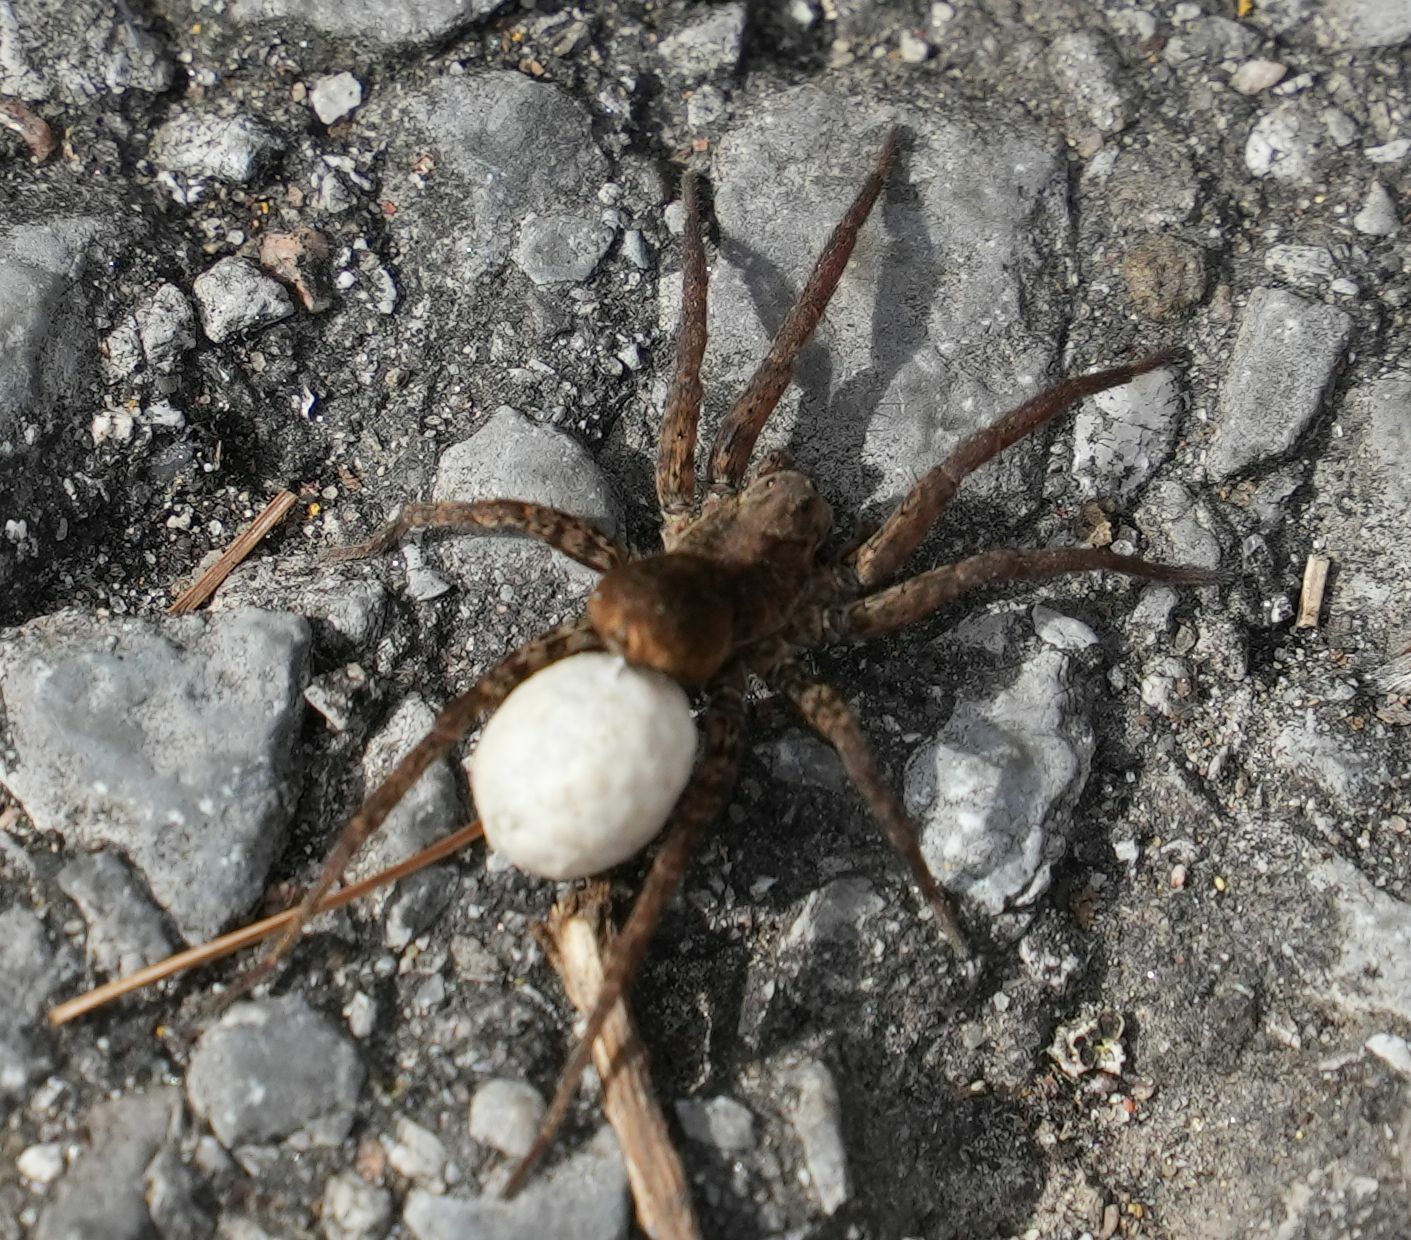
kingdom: Animalia
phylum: Arthropoda
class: Arachnida
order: Araneae
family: Lycosidae
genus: Gladicosa
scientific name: Gladicosa gulosa
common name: Drumming sword wolf spider
